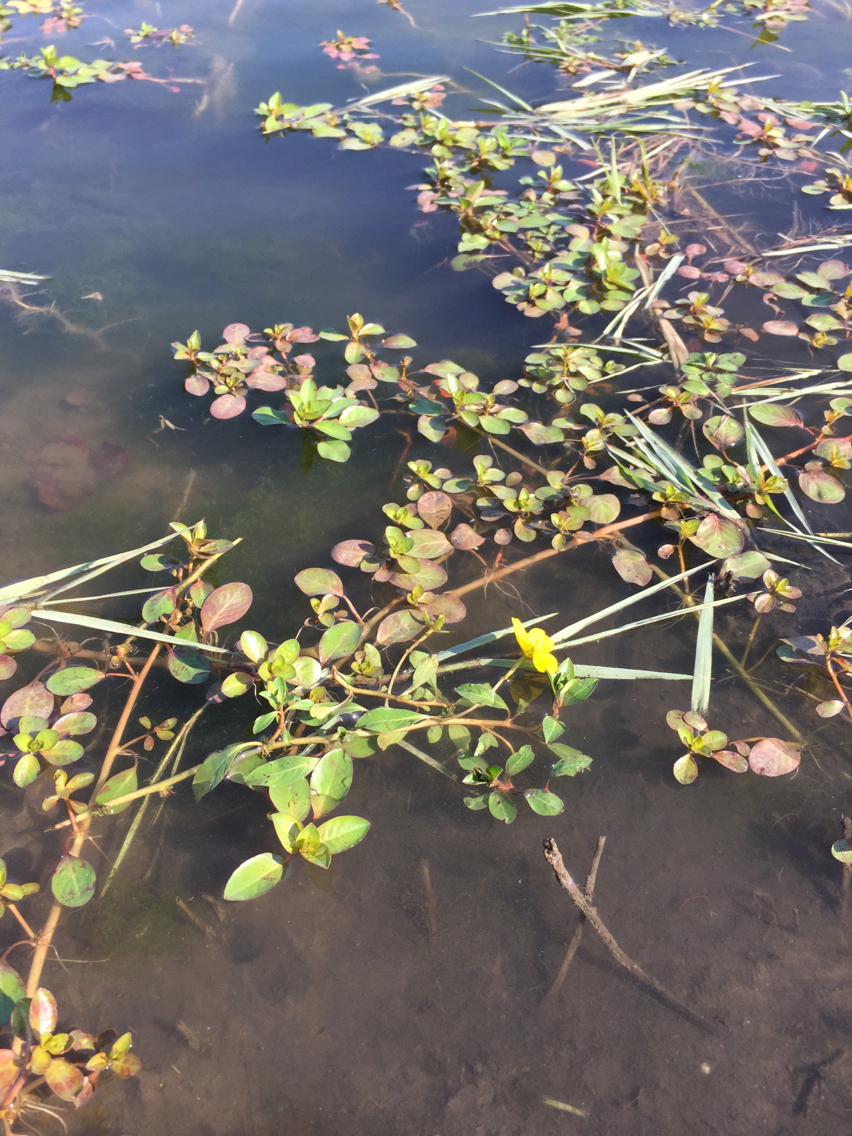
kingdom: Plantae
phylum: Tracheophyta
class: Magnoliopsida
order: Myrtales
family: Onagraceae
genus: Ludwigia
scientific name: Ludwigia peploides
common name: Floating primrose-willow
